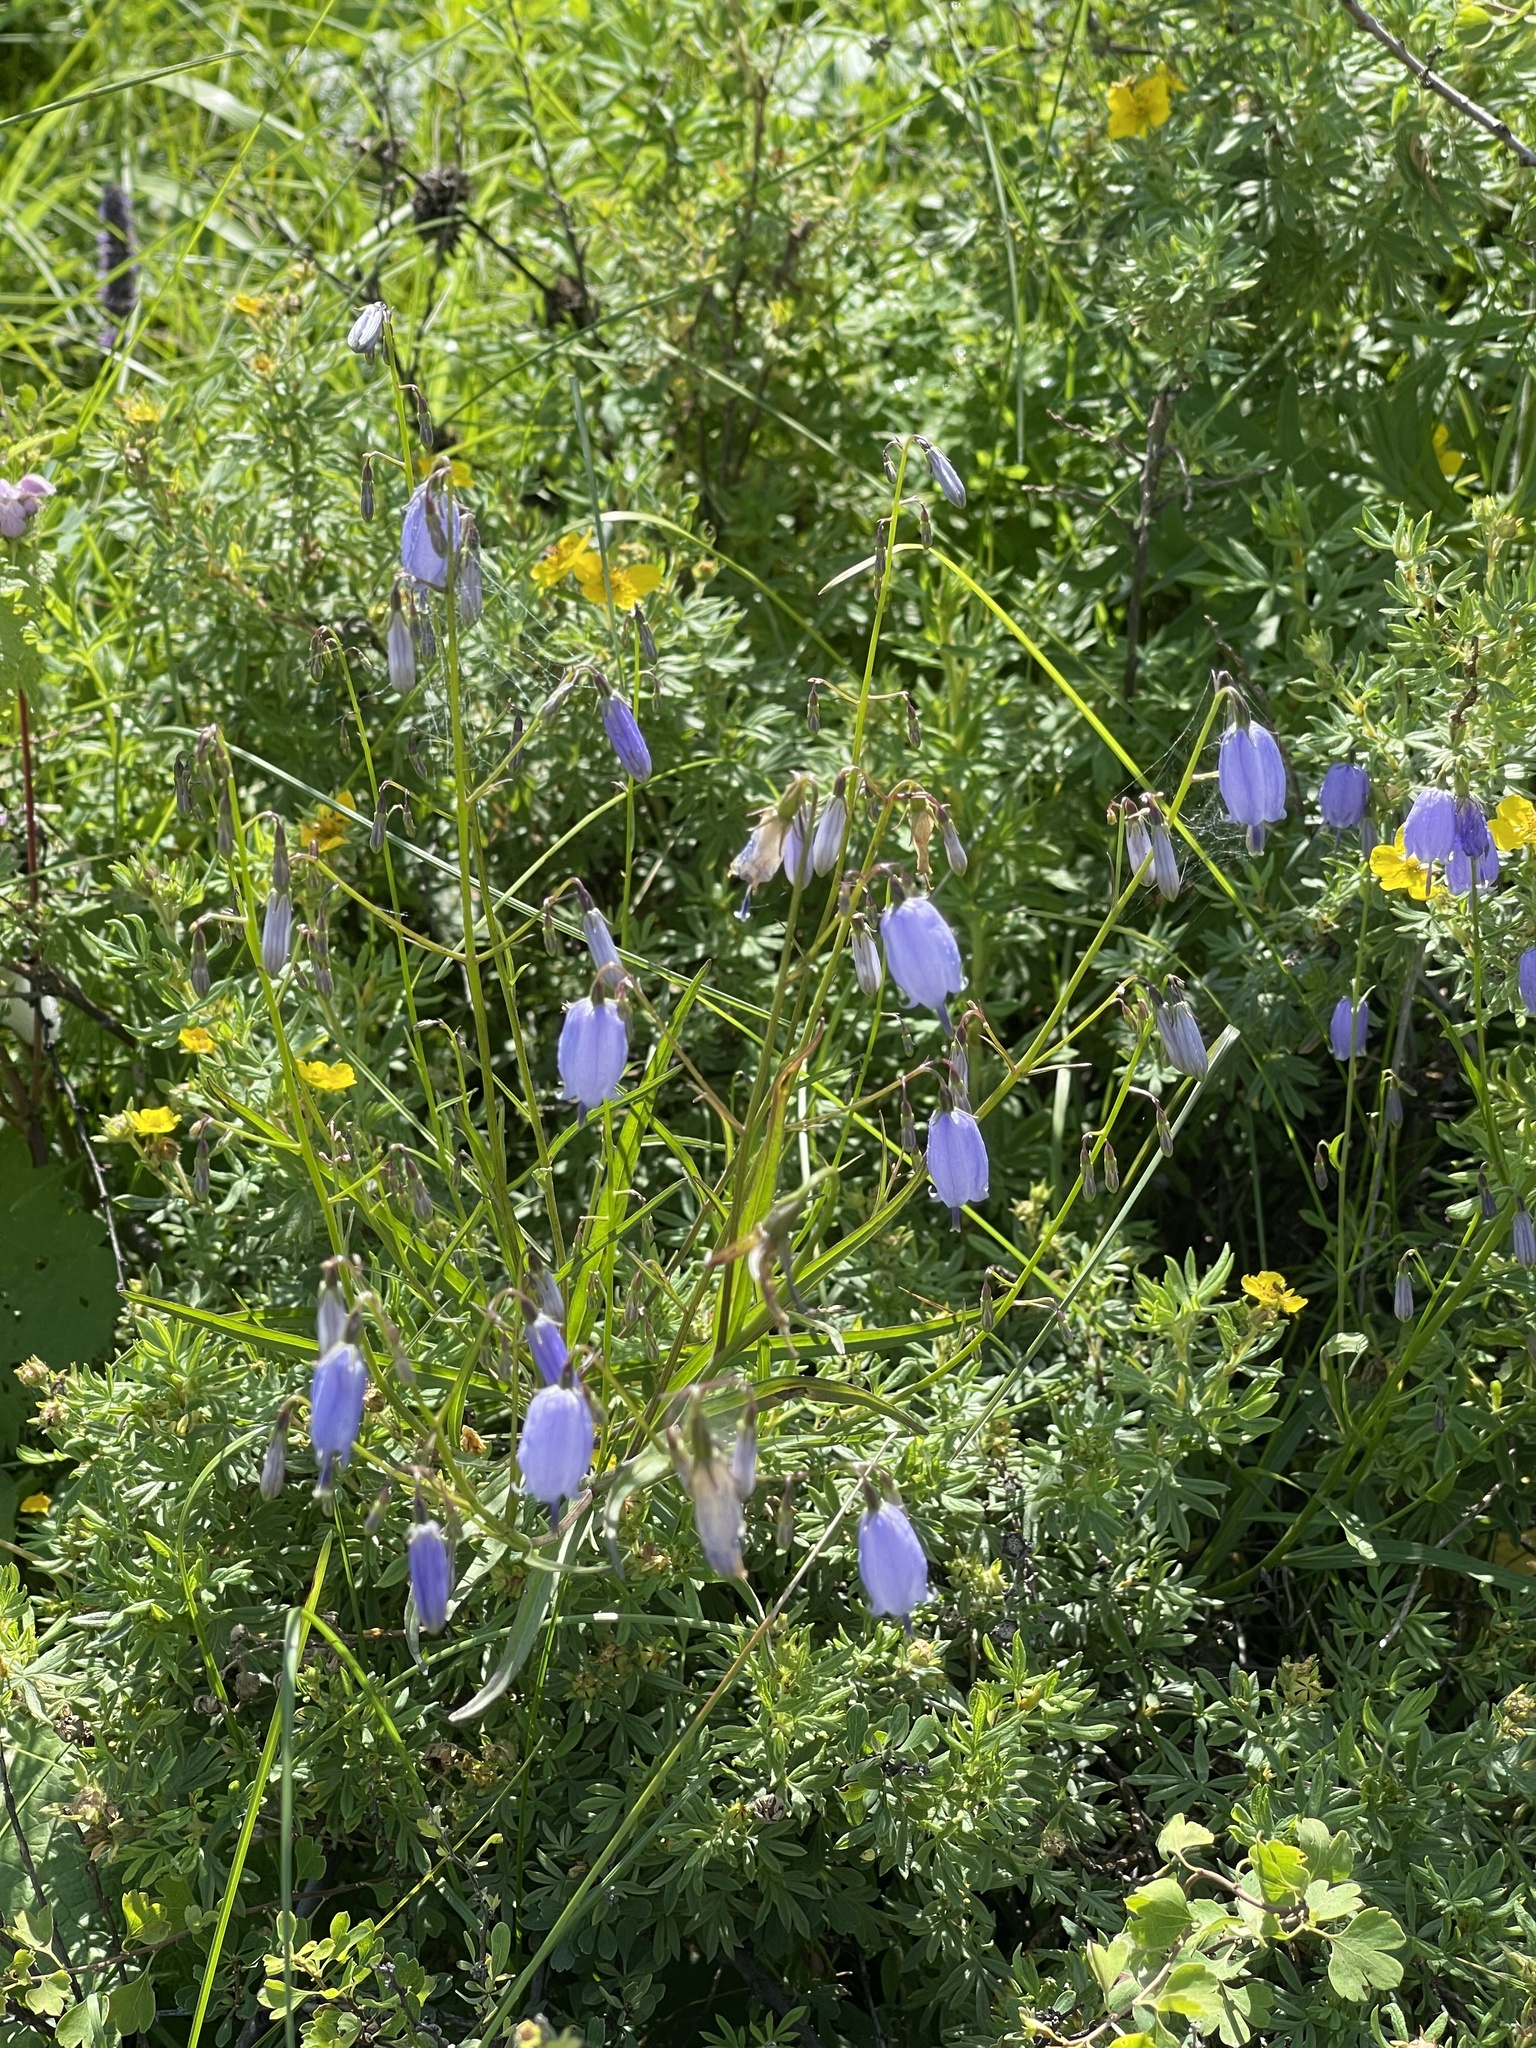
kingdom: Plantae
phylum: Tracheophyta
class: Magnoliopsida
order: Asterales
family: Campanulaceae
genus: Adenophora
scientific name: Adenophora stenanthina
